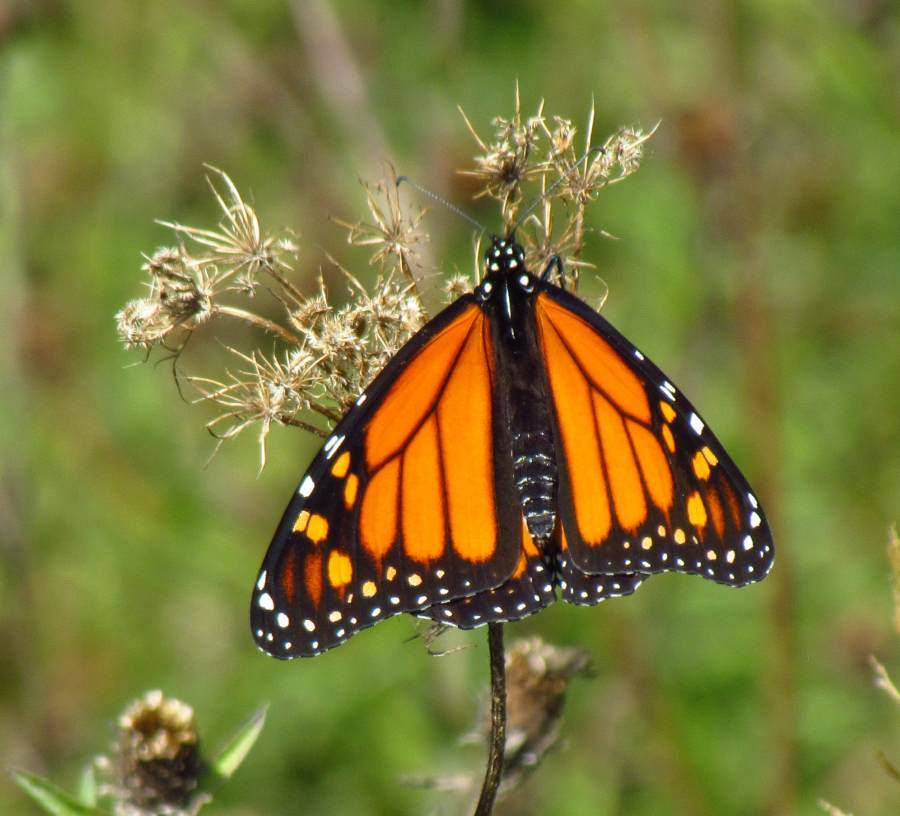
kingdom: Animalia
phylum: Arthropoda
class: Insecta
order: Lepidoptera
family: Nymphalidae
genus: Danaus
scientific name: Danaus plexippus
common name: Monarch
